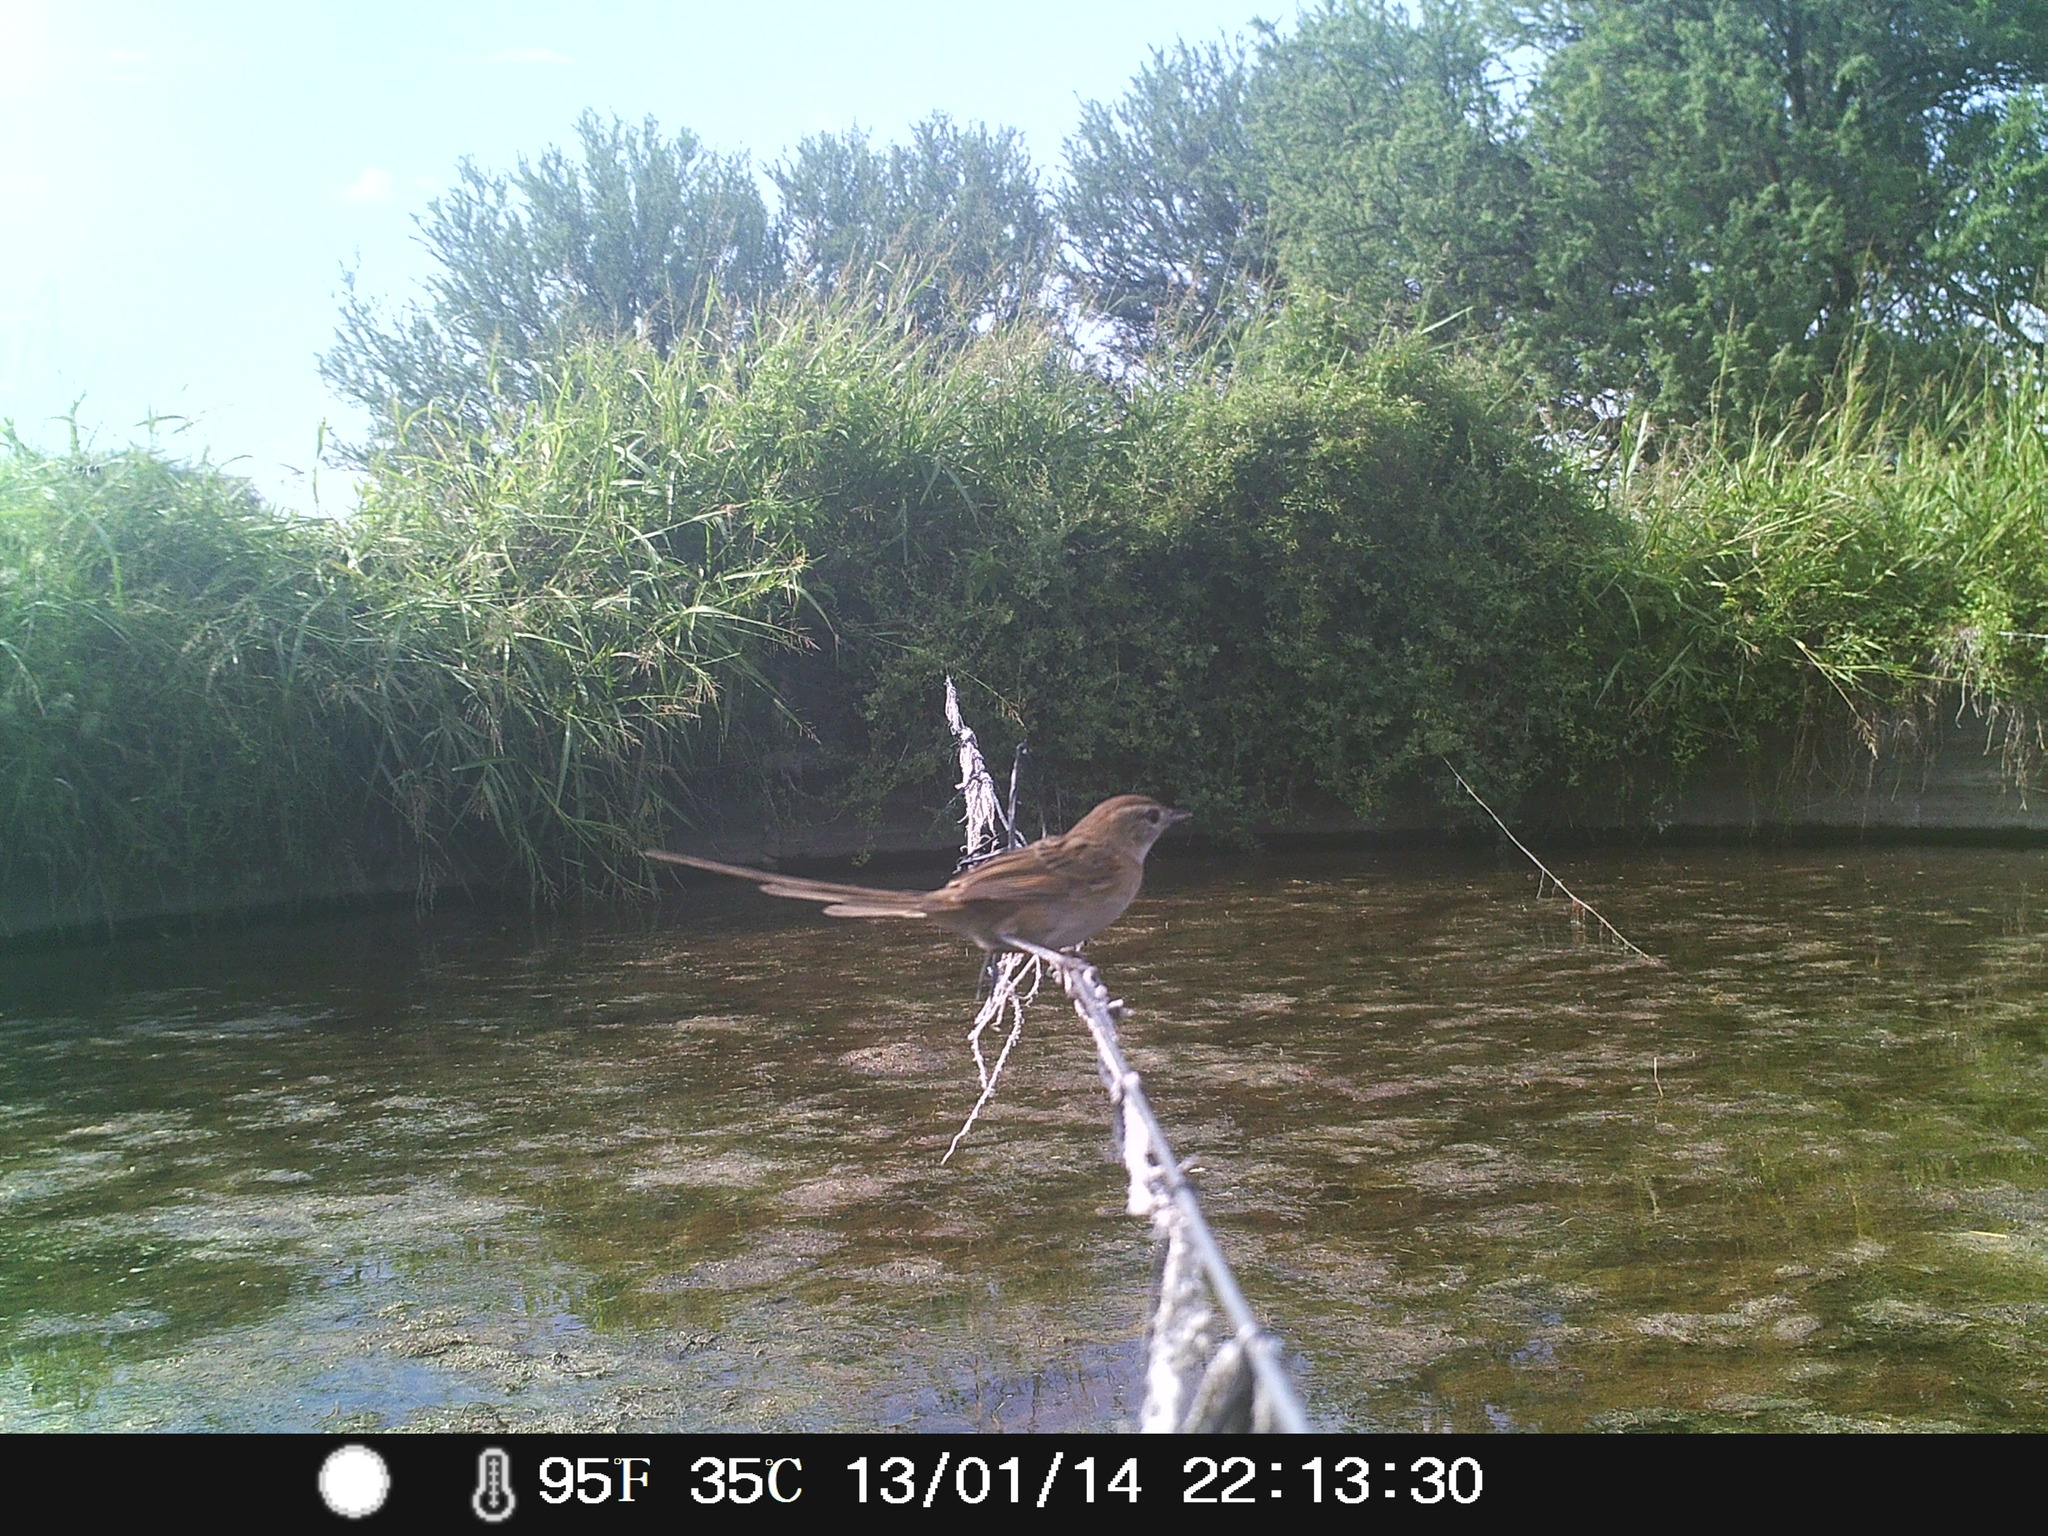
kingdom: Animalia
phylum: Chordata
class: Aves
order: Passeriformes
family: Furnariidae
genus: Schoeniophylax
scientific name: Schoeniophylax phryganophilus
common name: Chotoy spinetail
